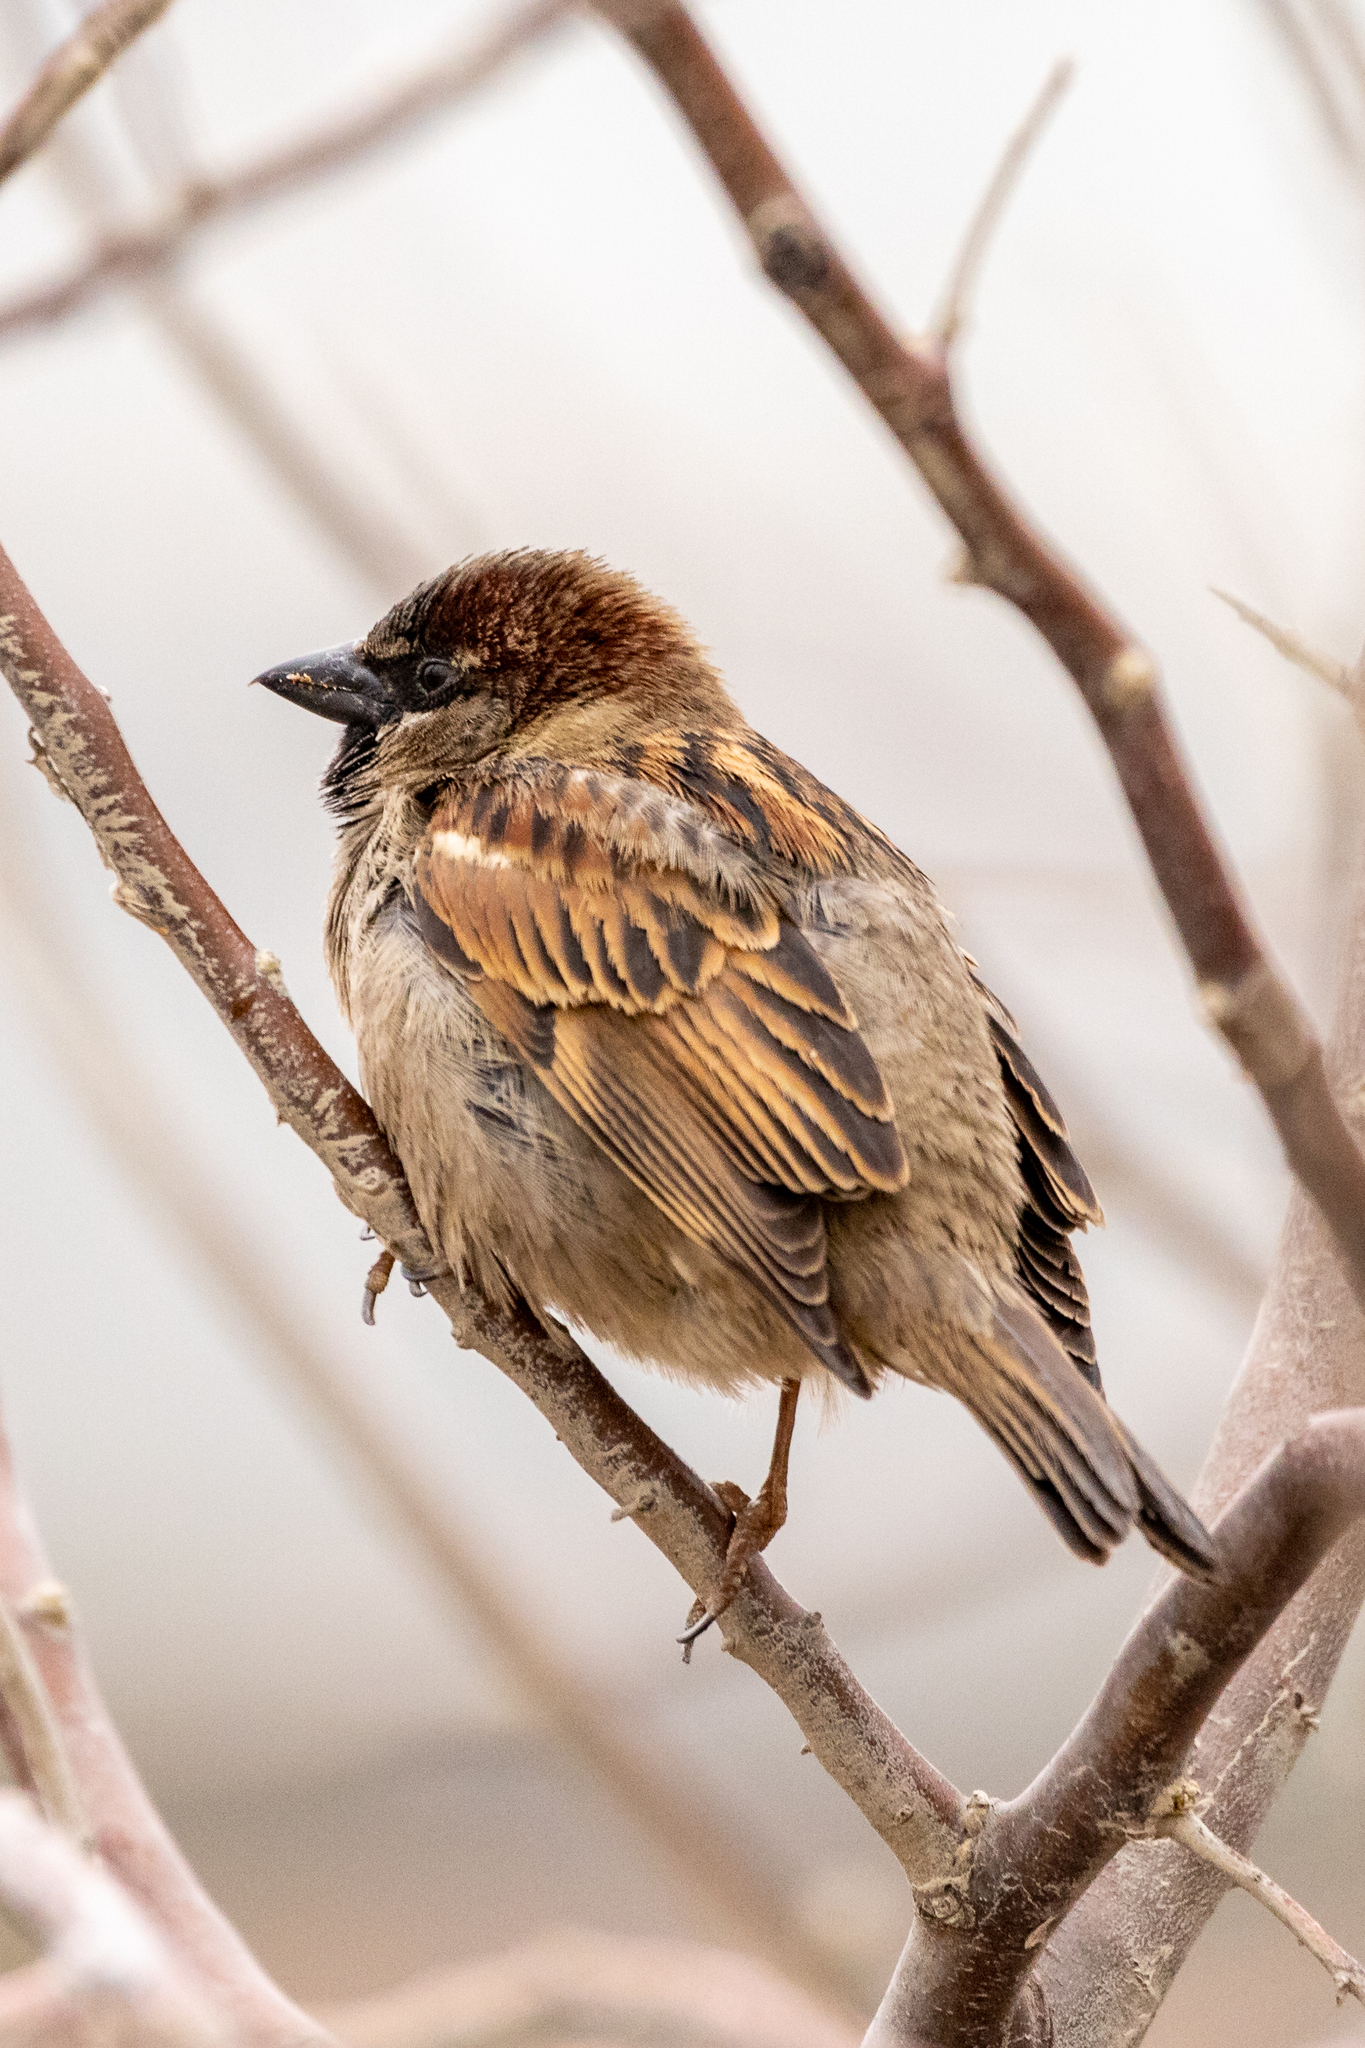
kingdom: Animalia
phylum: Chordata
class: Aves
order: Passeriformes
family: Passeridae
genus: Passer
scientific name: Passer domesticus
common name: House sparrow
